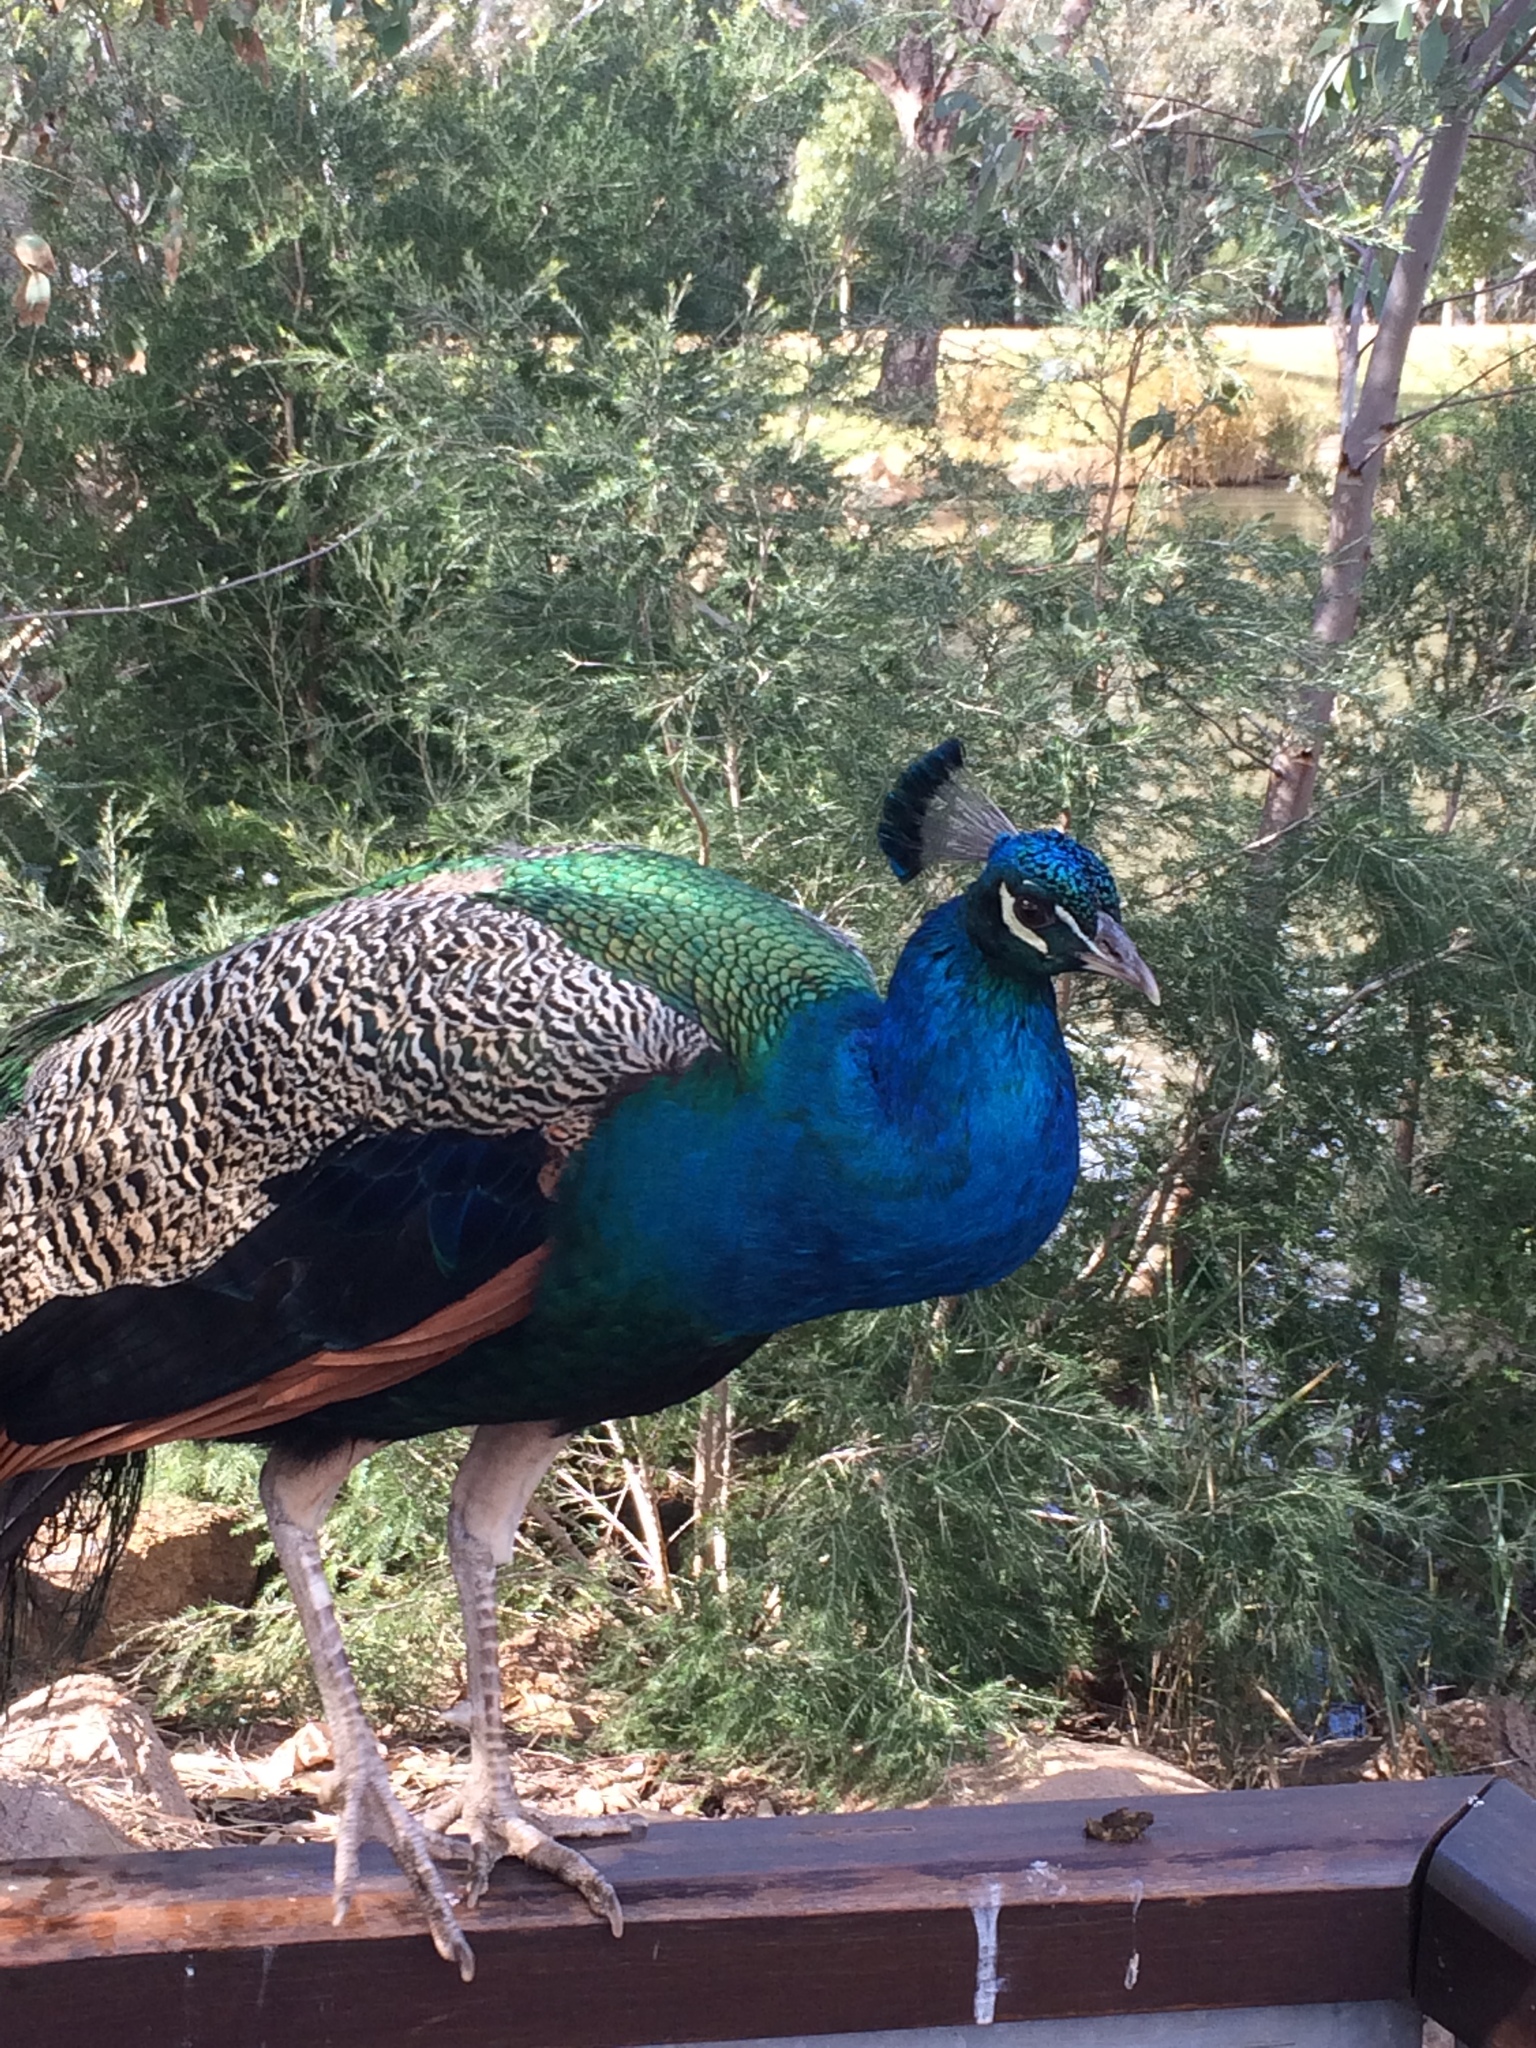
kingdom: Animalia
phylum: Chordata
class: Aves
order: Galliformes
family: Phasianidae
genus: Pavo
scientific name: Pavo cristatus
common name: Indian peafowl
